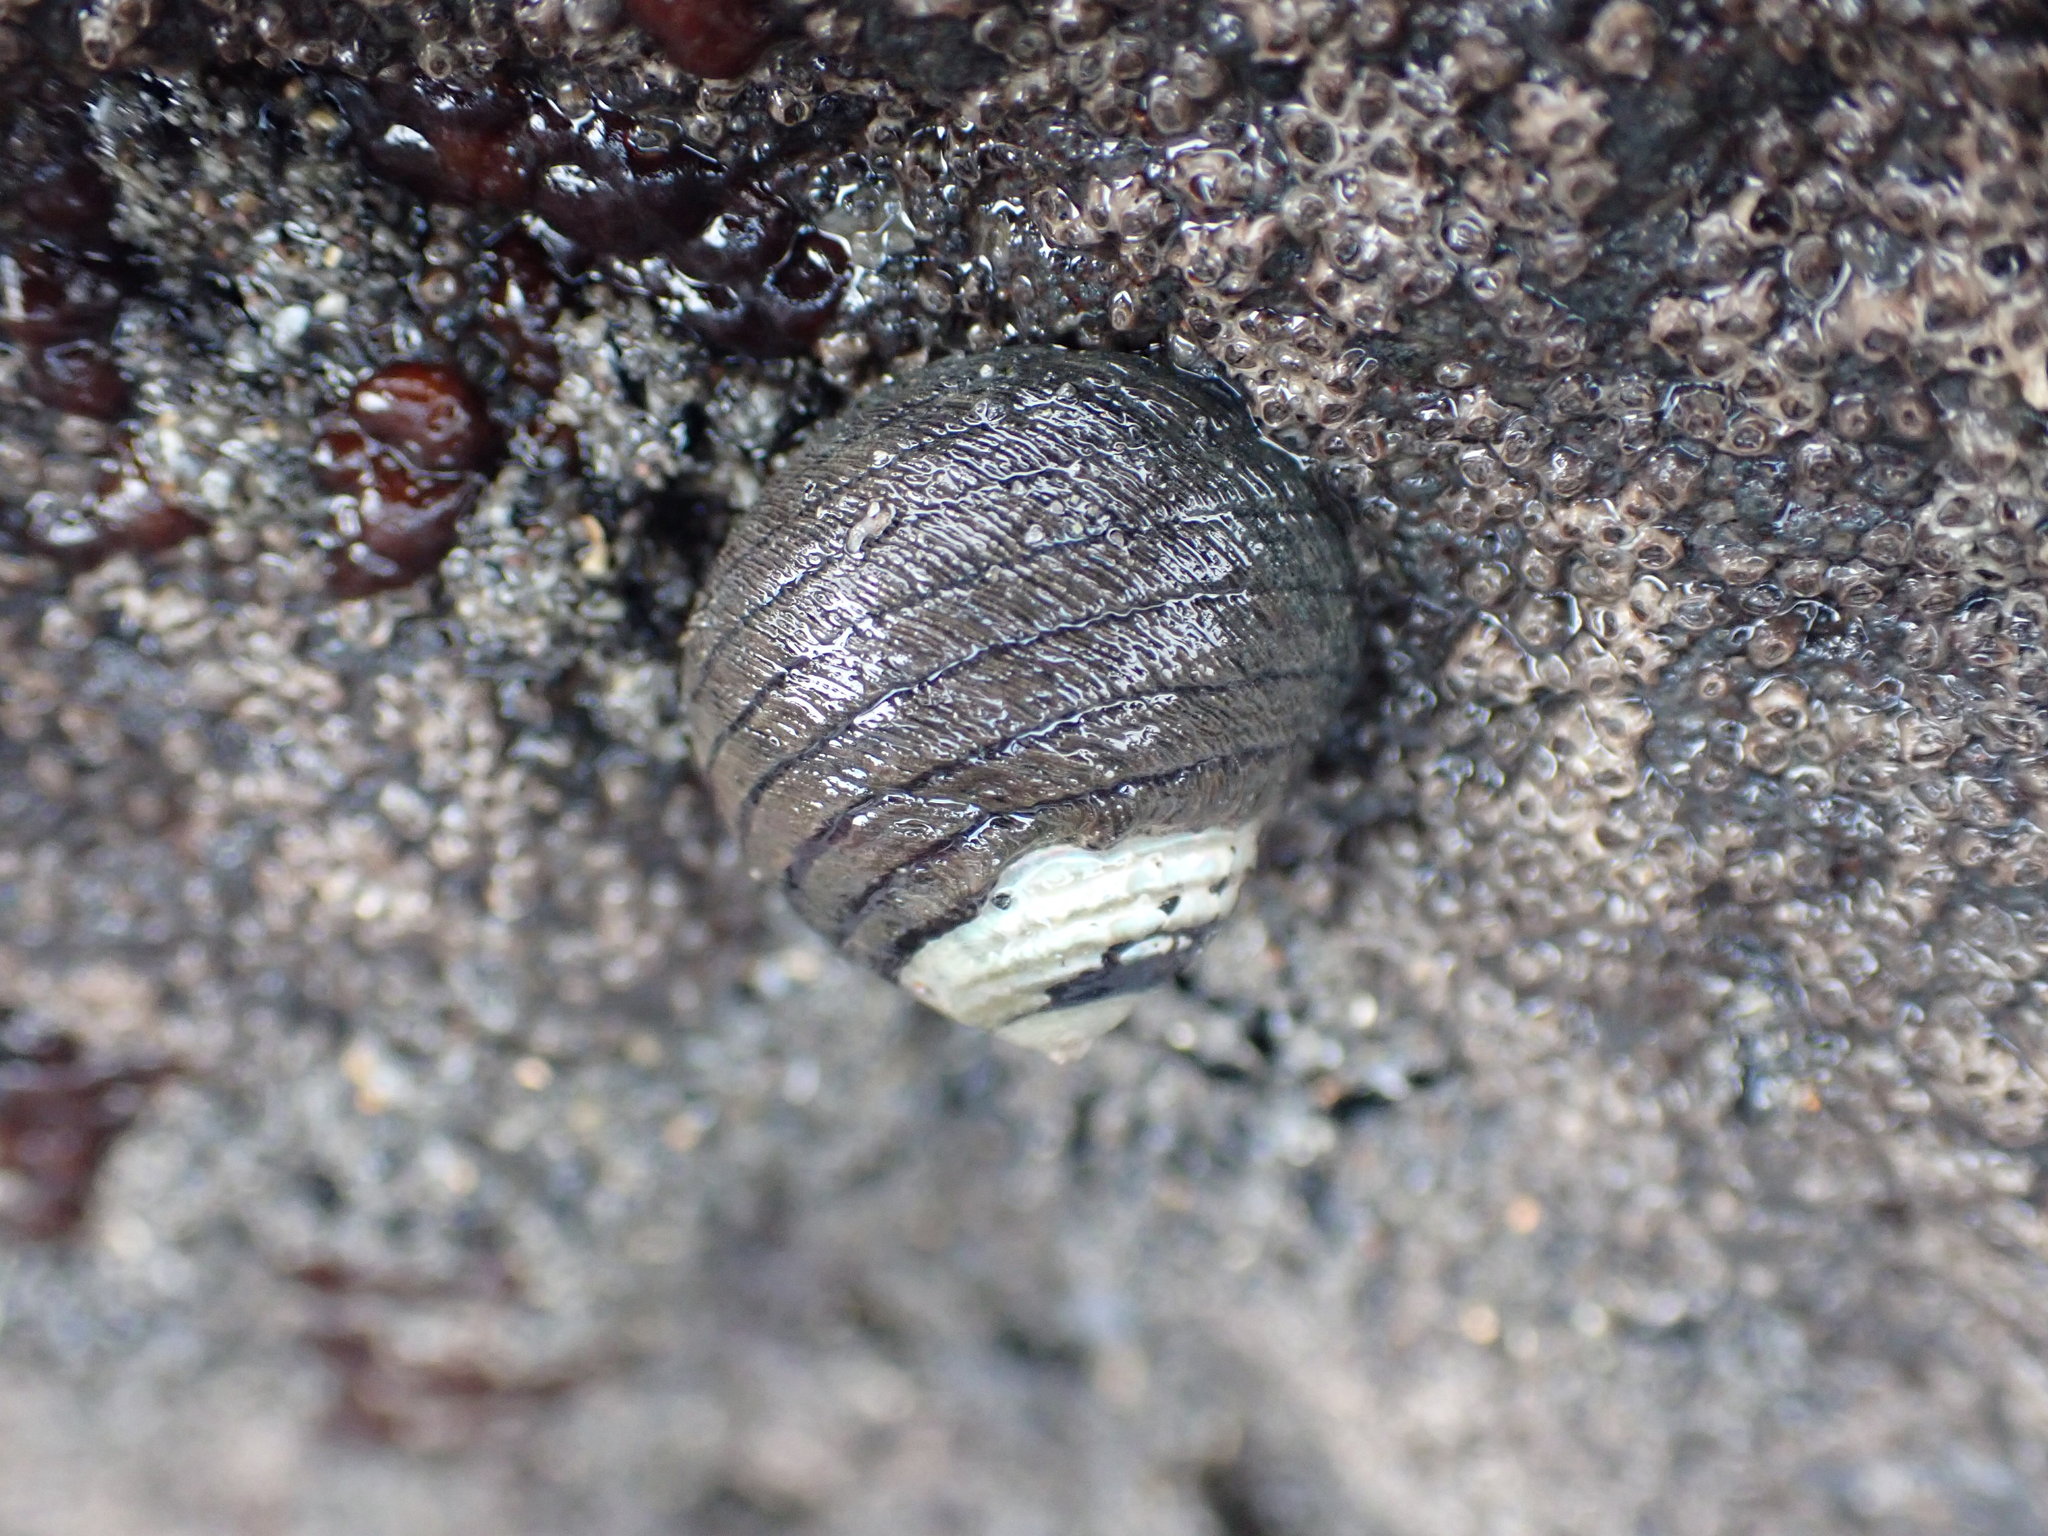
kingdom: Animalia
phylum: Mollusca
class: Gastropoda
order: Trochida
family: Trochidae
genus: Diloma
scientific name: Diloma aethiops
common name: Scorched monodont
